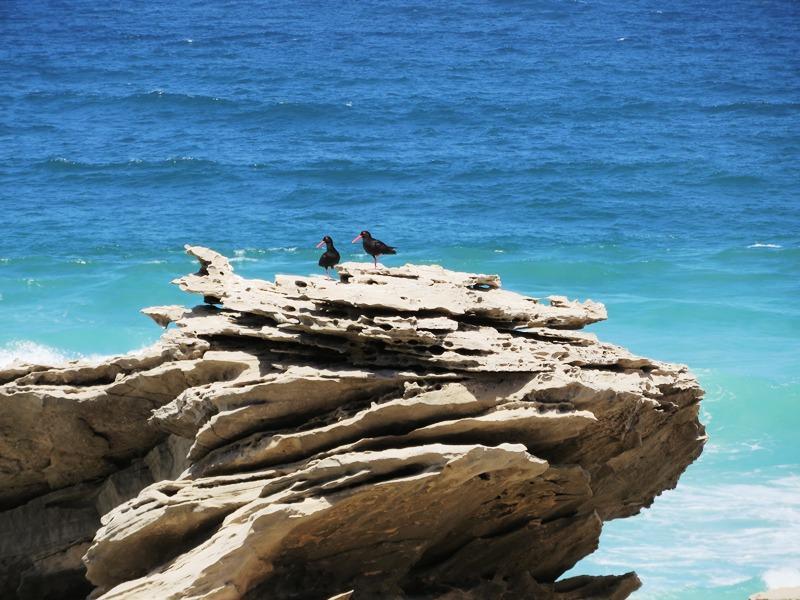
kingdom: Animalia
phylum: Chordata
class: Aves
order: Charadriiformes
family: Haematopodidae
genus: Haematopus
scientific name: Haematopus moquini
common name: African oystercatcher
